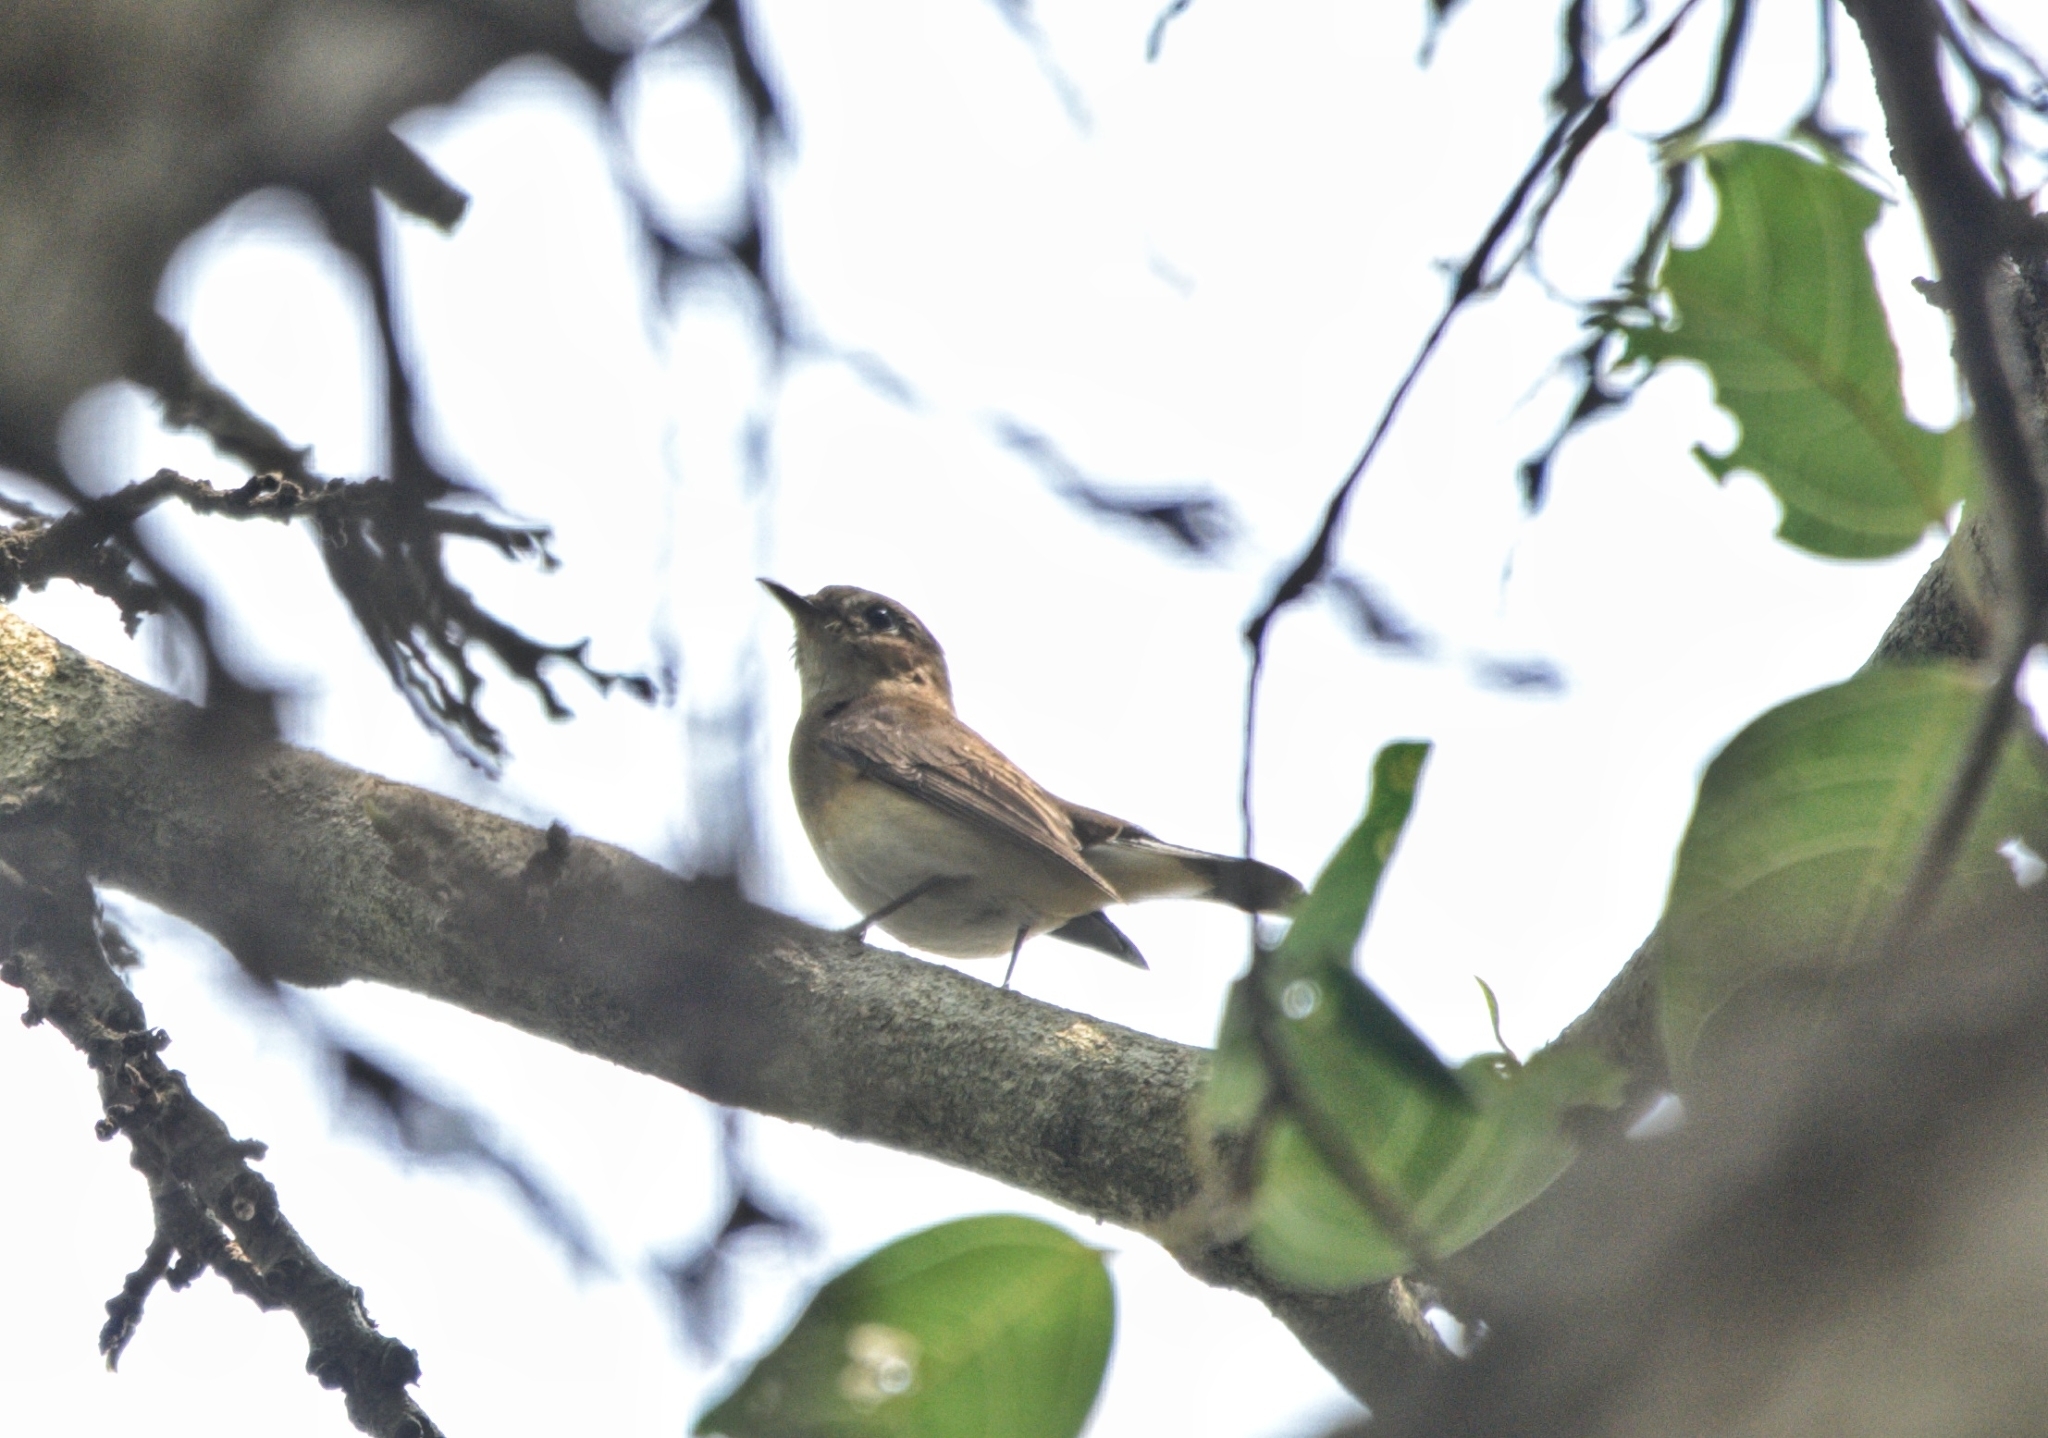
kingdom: Animalia
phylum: Chordata
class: Aves
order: Passeriformes
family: Muscicapidae
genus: Ficedula
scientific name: Ficedula albicilla
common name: Taiga flycatcher
